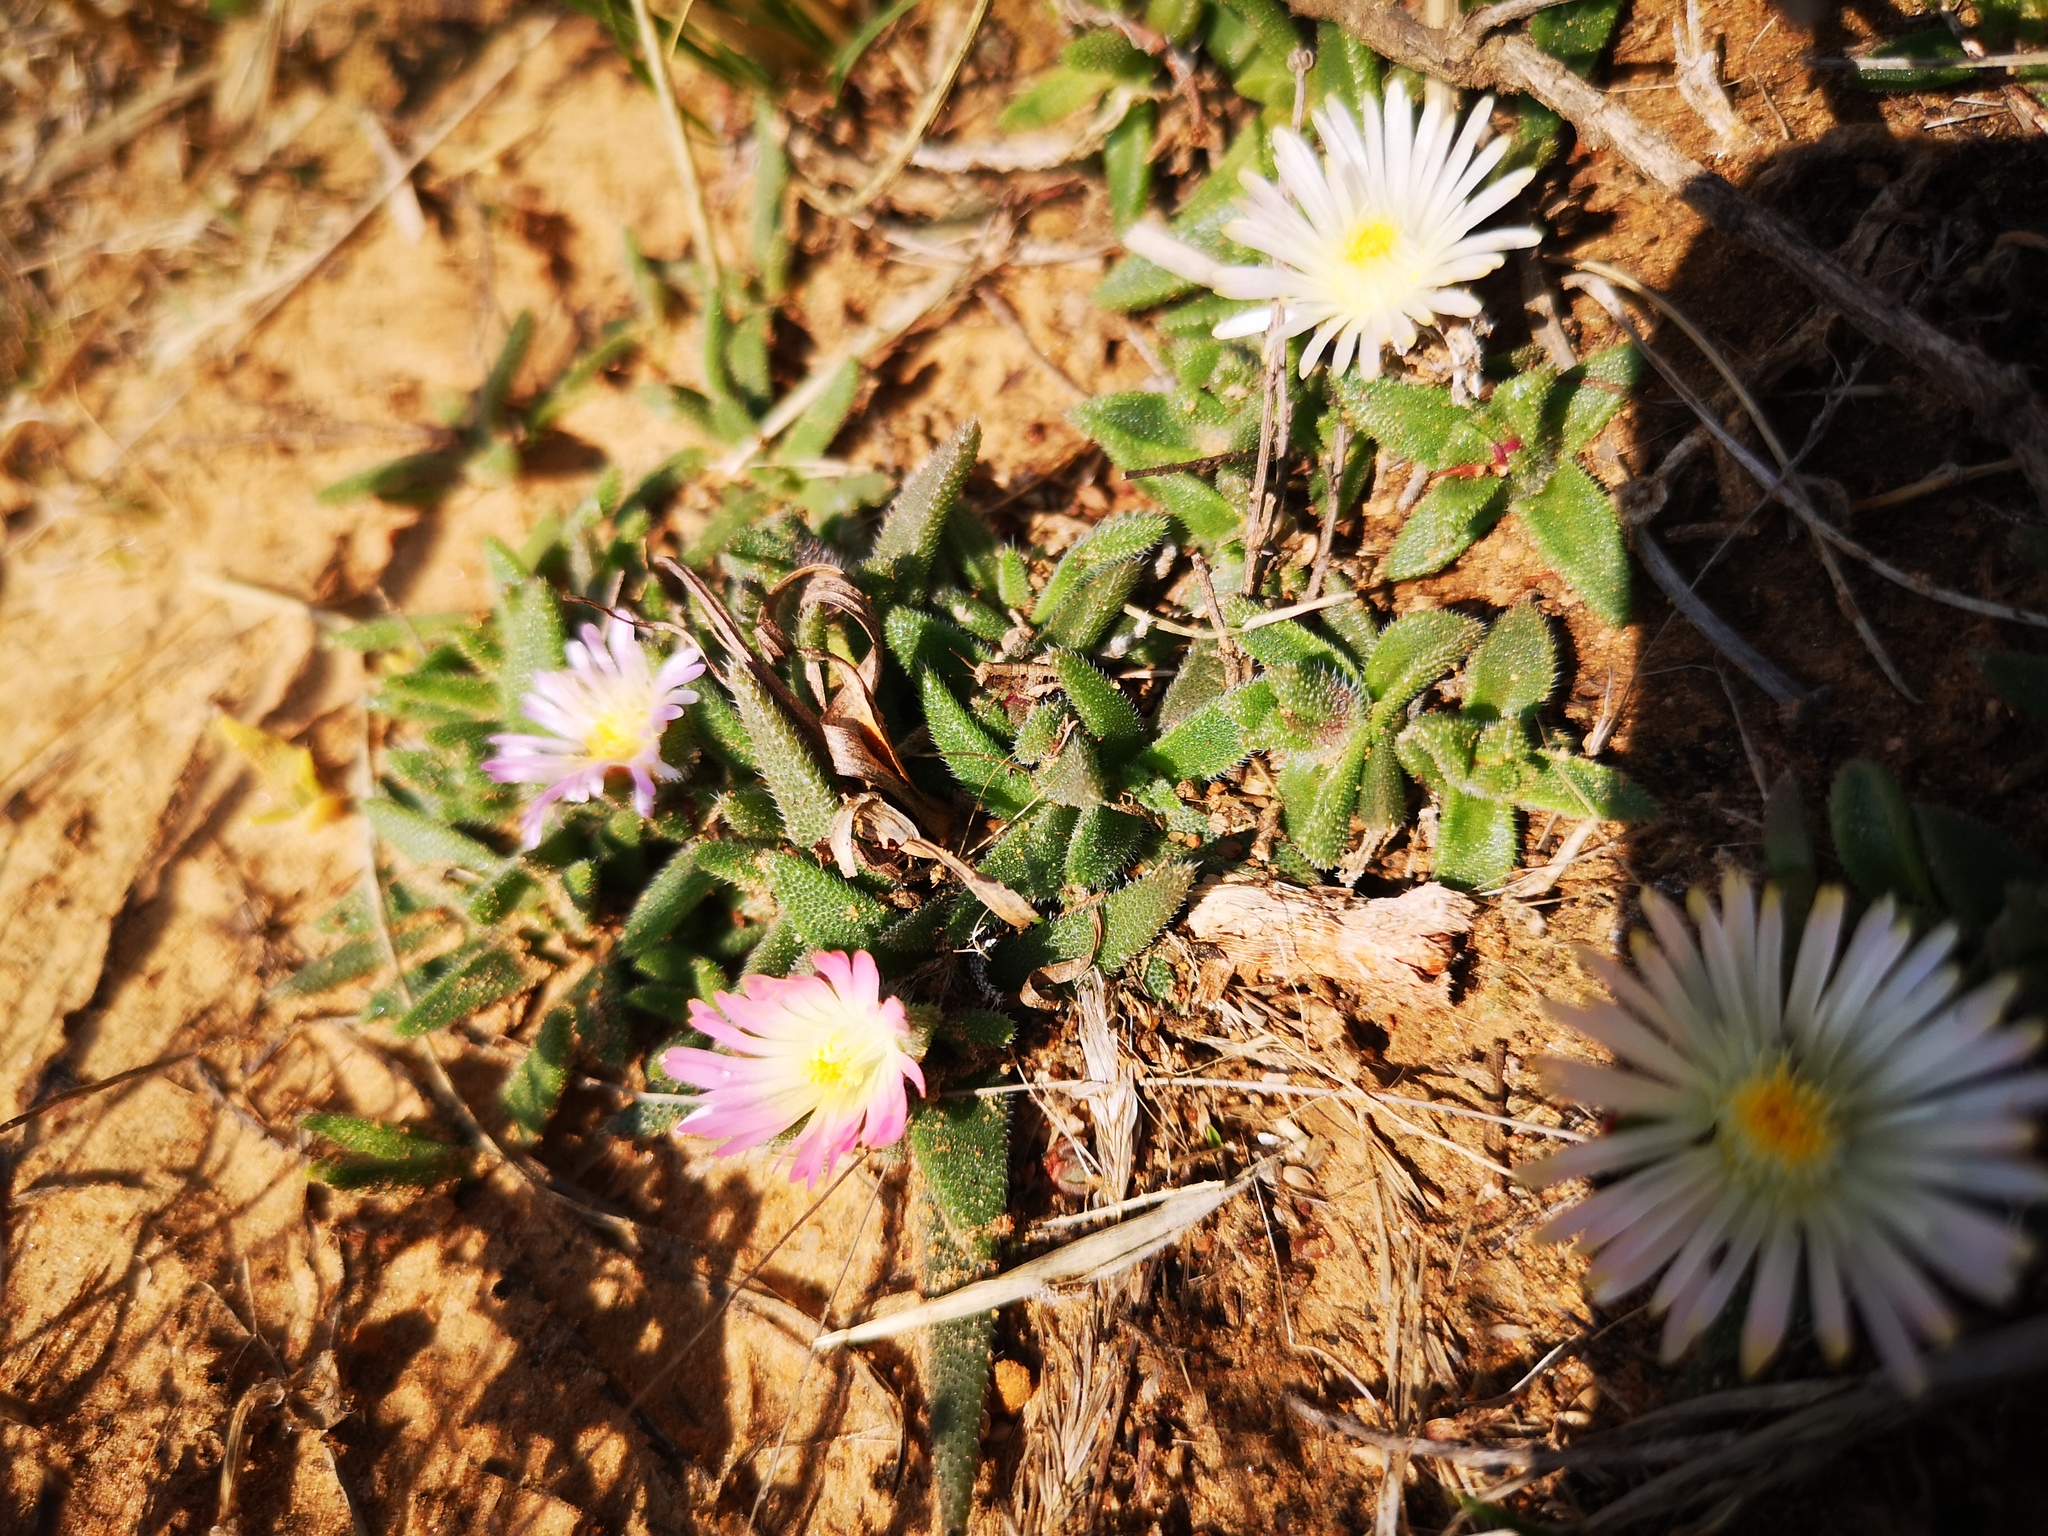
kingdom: Plantae
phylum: Tracheophyta
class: Magnoliopsida
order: Caryophyllales
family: Aizoaceae
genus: Delosperma
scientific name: Delosperma sutherlandii
